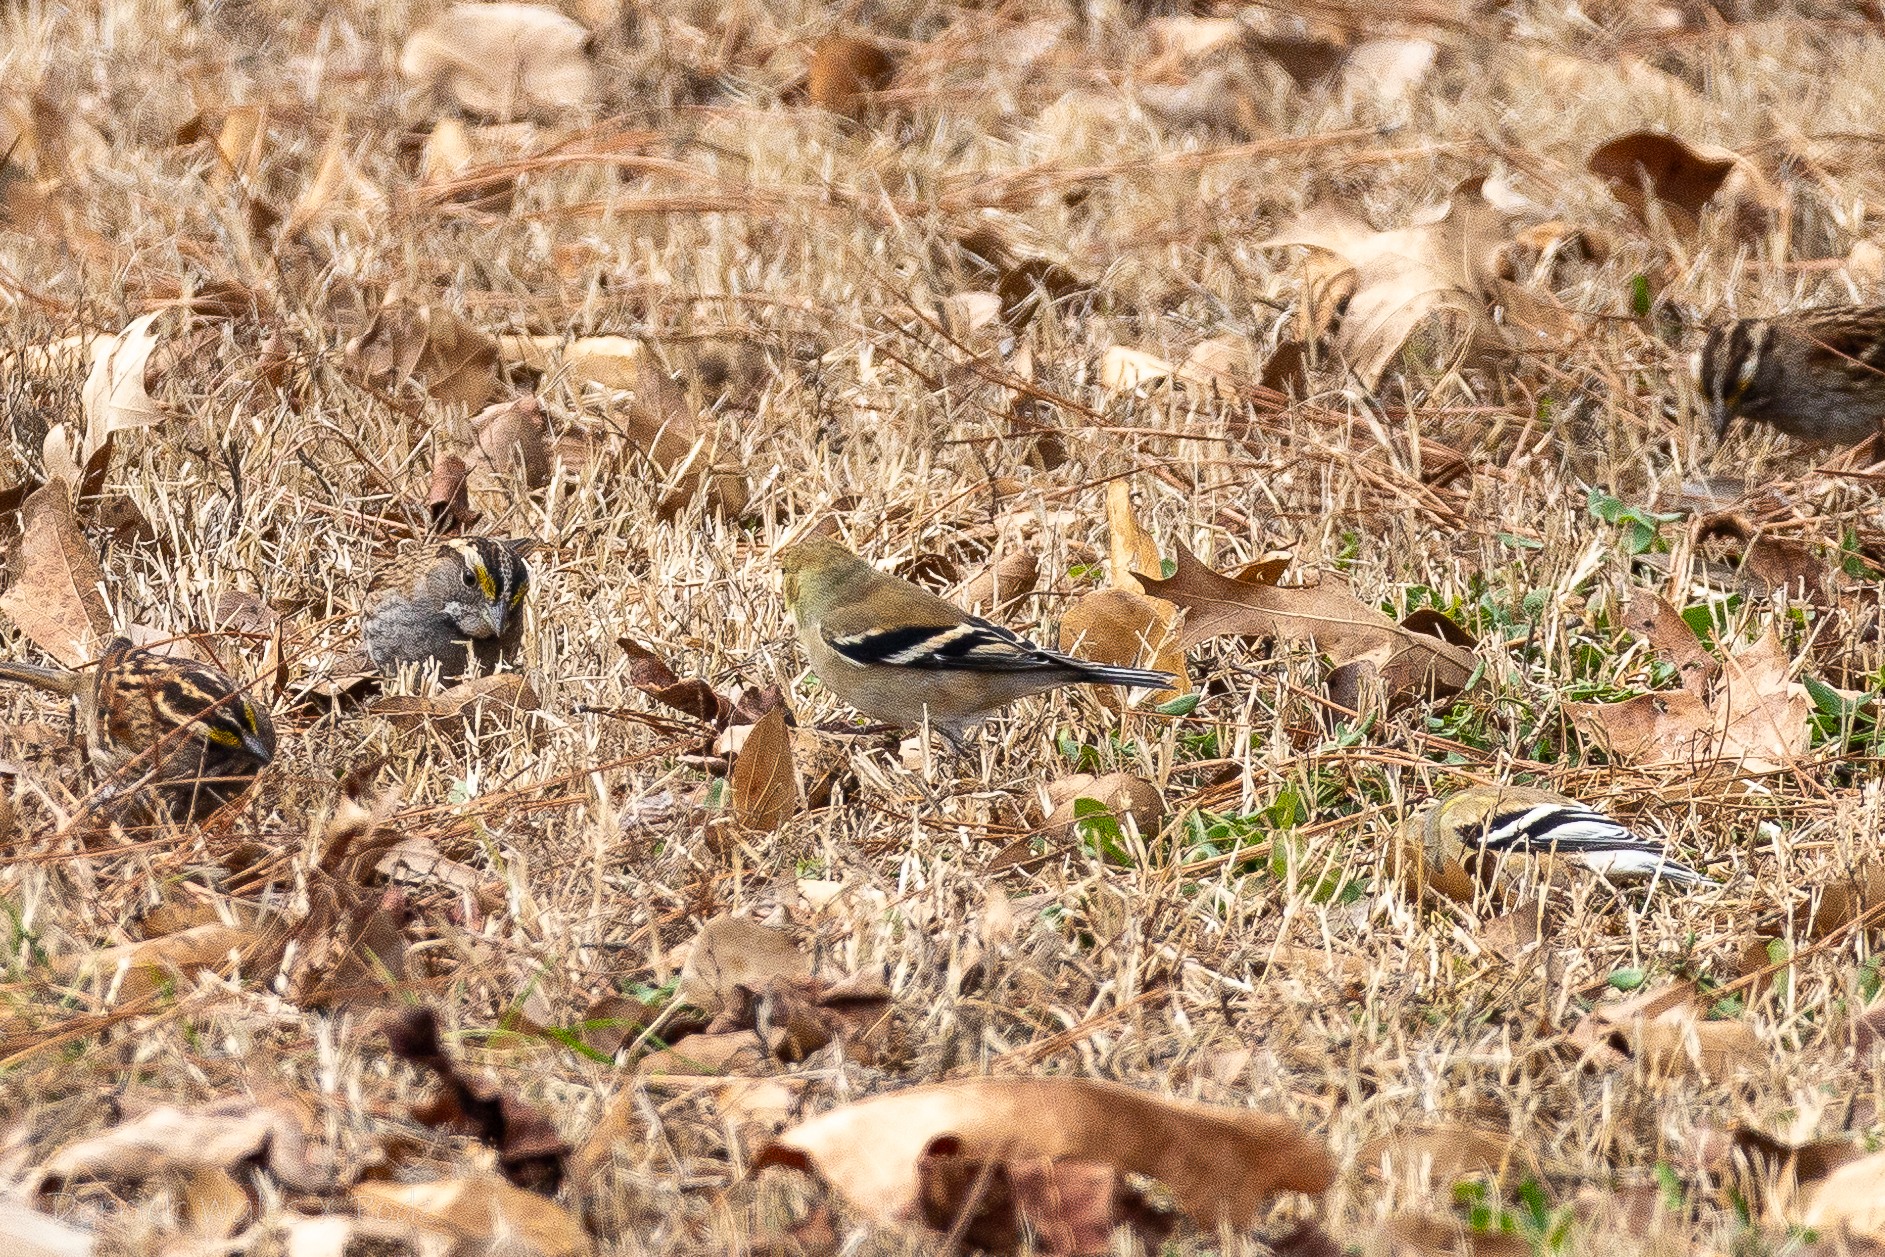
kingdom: Animalia
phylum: Chordata
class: Aves
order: Passeriformes
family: Fringillidae
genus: Spinus
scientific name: Spinus tristis
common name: American goldfinch
